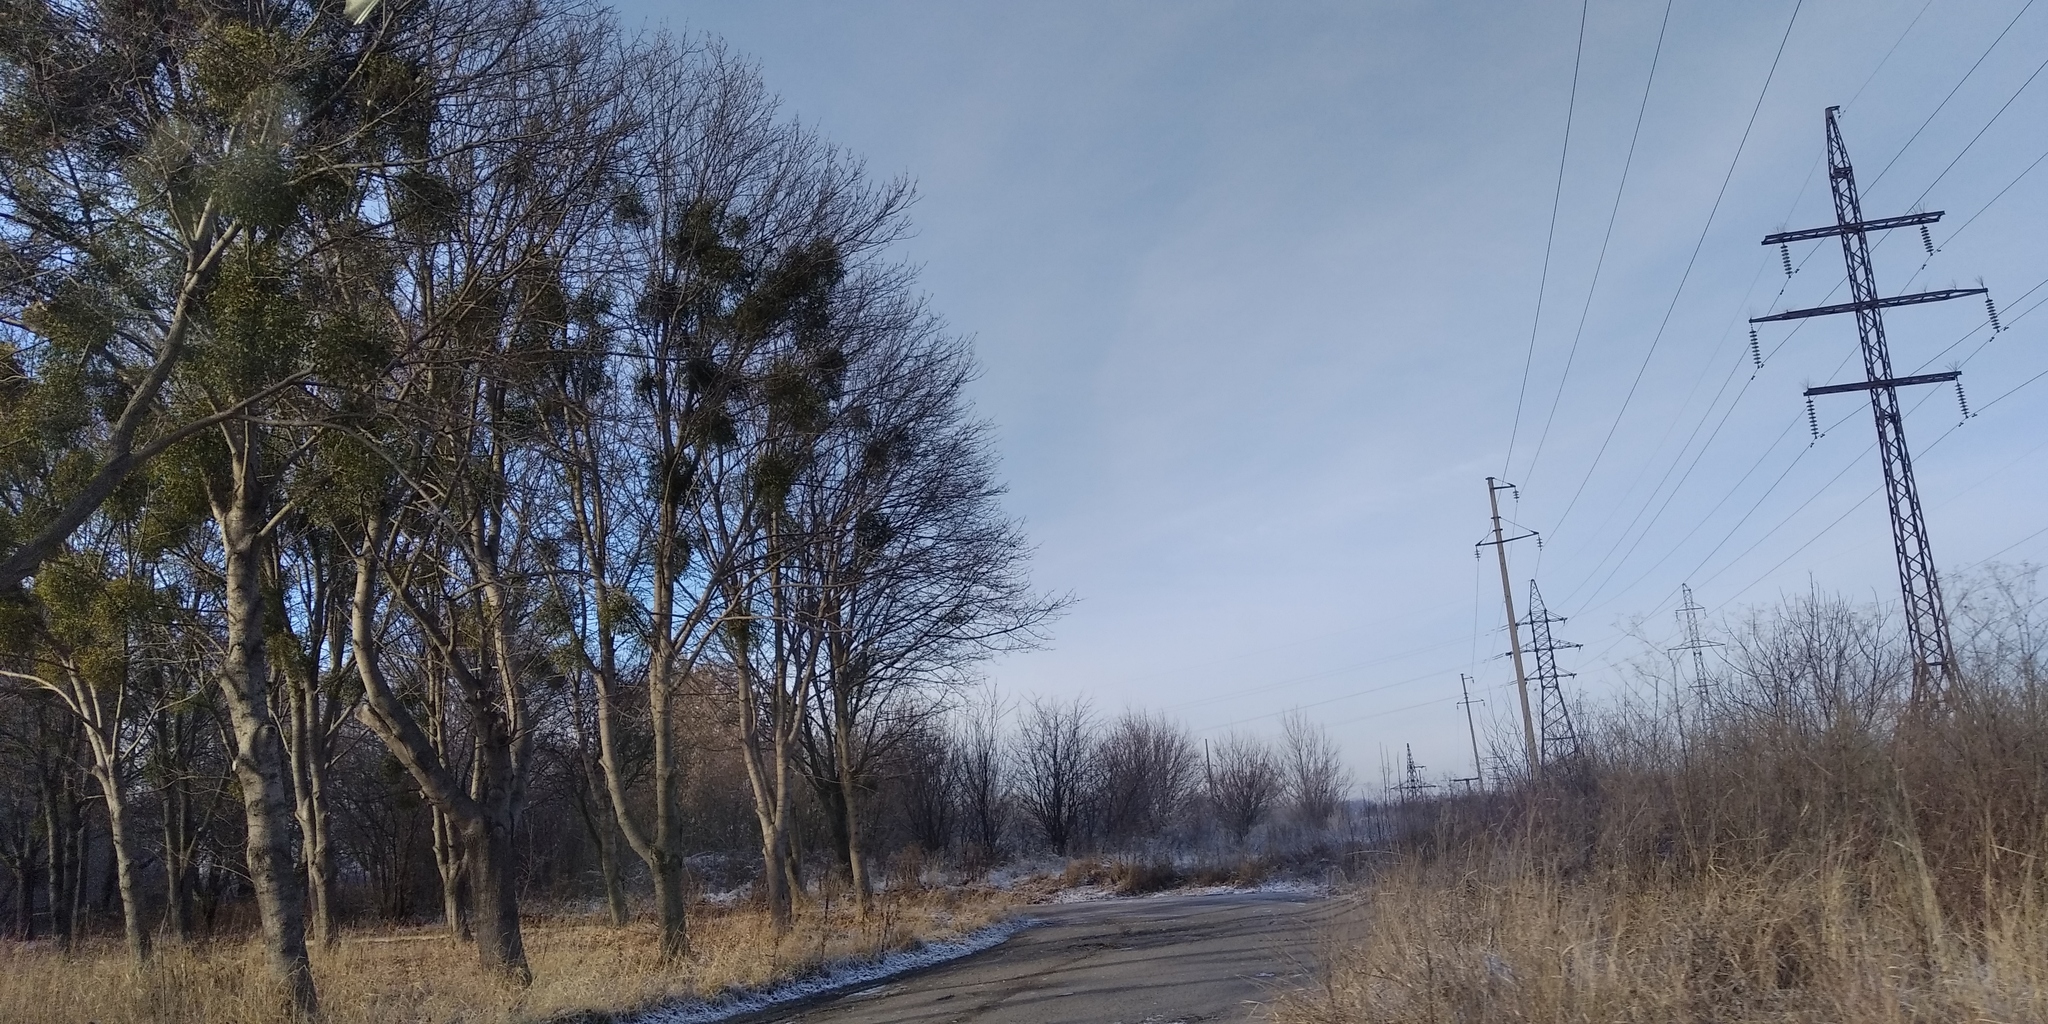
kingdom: Plantae
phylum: Tracheophyta
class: Magnoliopsida
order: Santalales
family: Viscaceae
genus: Viscum
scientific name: Viscum album
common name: Mistletoe
